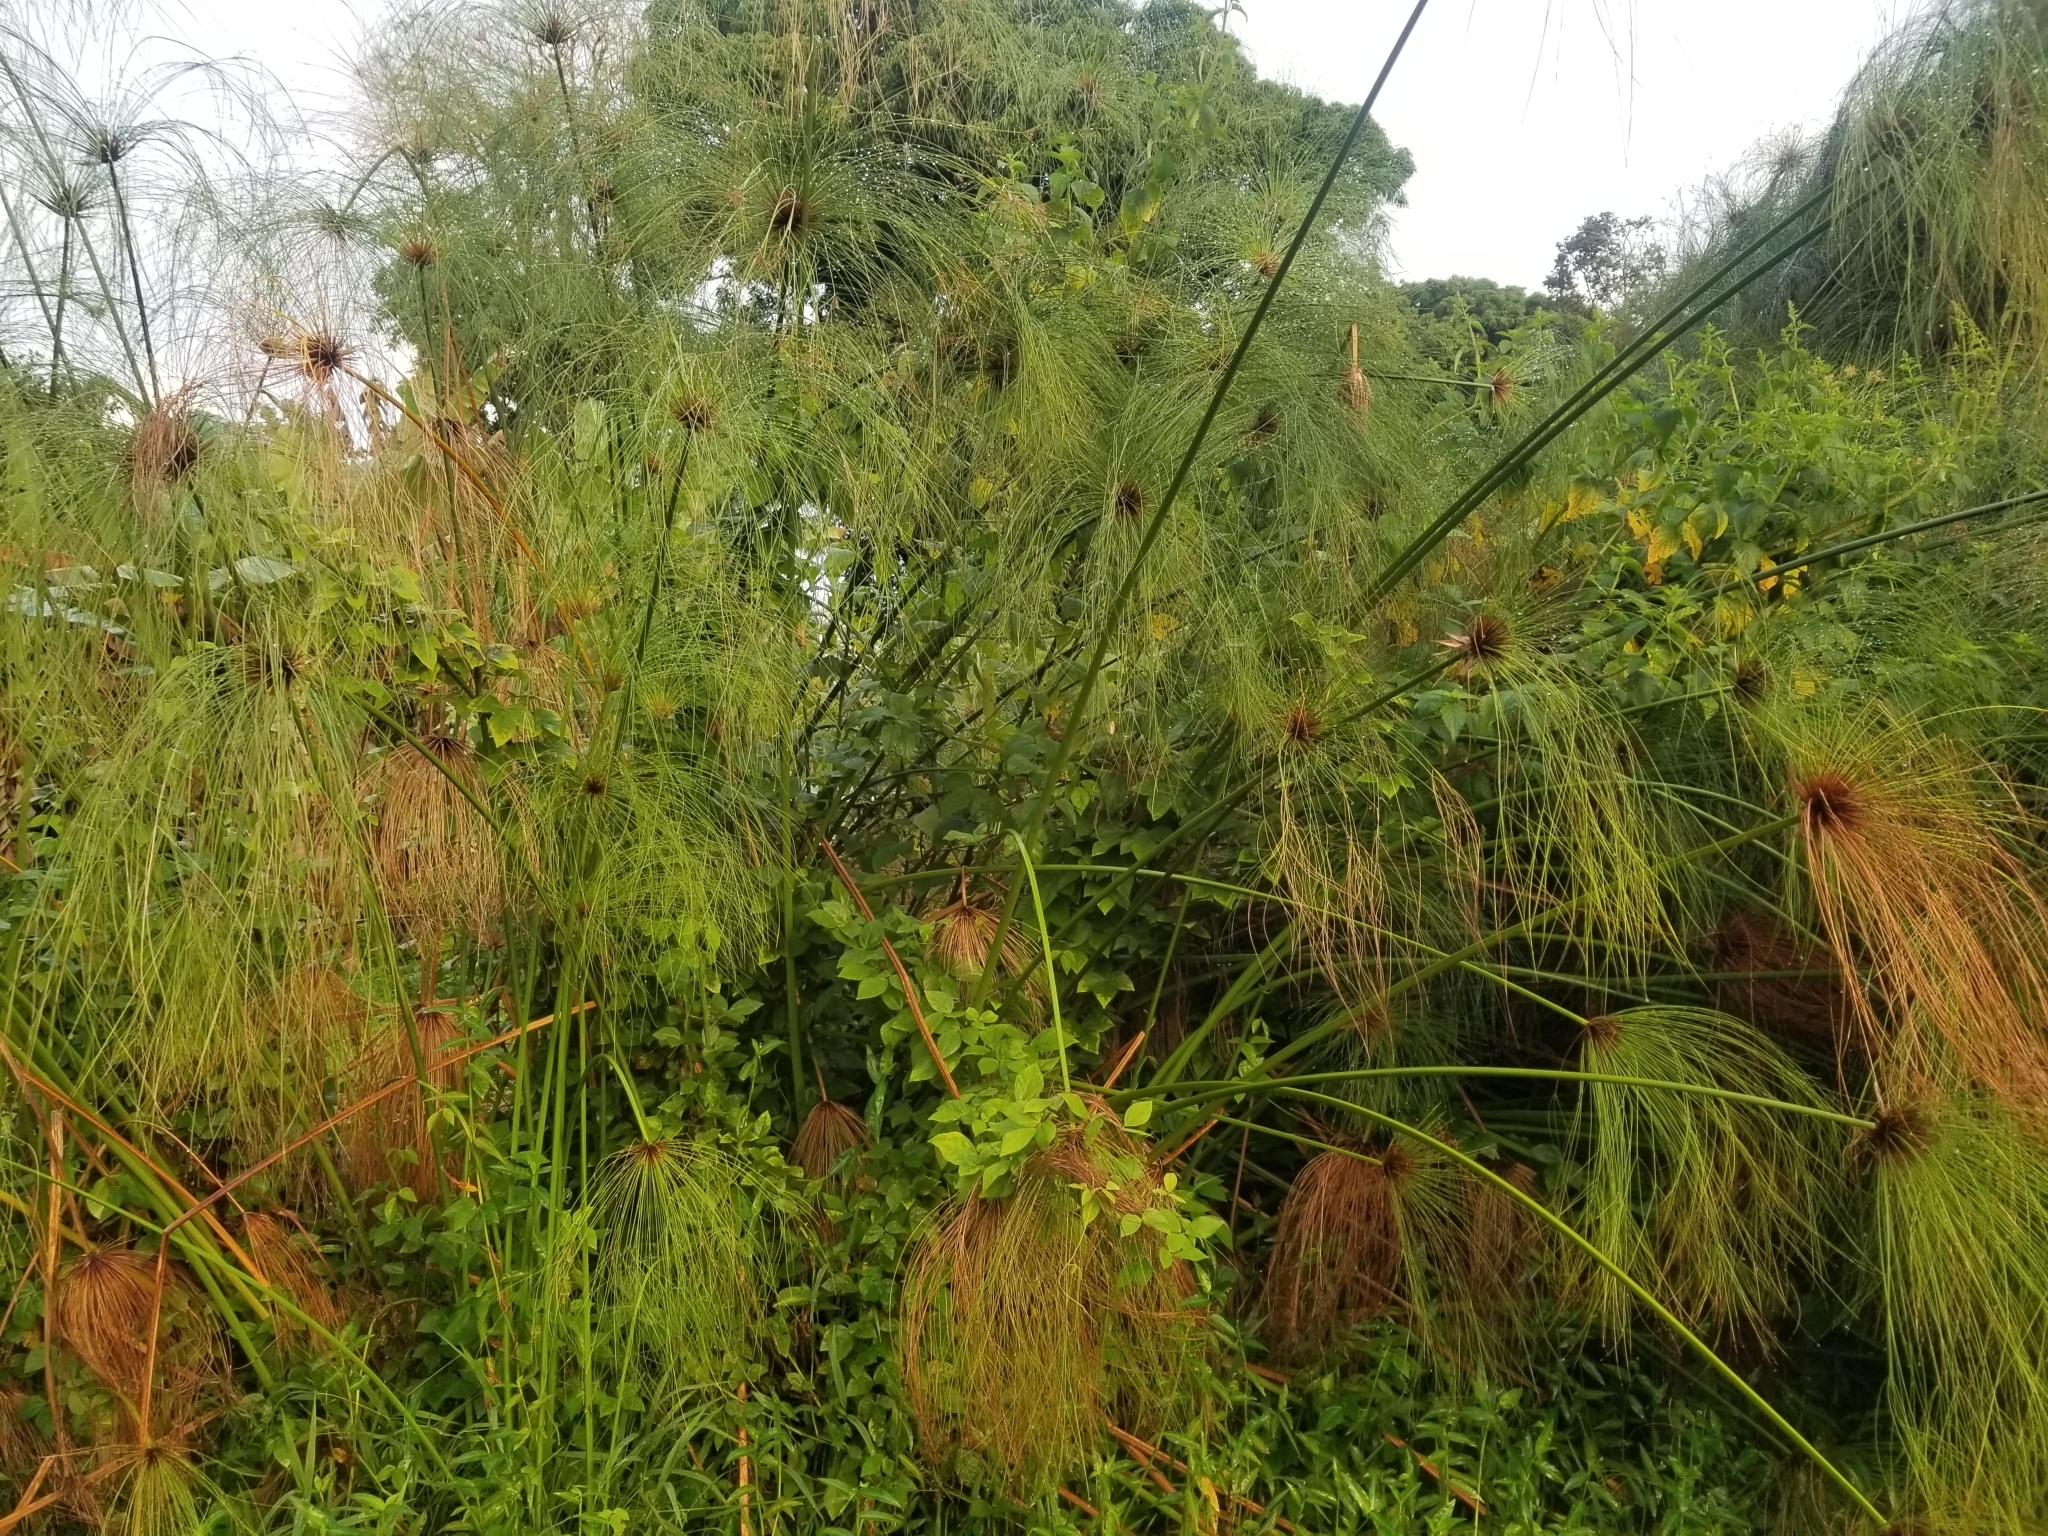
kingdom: Plantae
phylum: Tracheophyta
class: Liliopsida
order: Poales
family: Cyperaceae
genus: Cyperus
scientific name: Cyperus papyrus
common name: Papyrus
